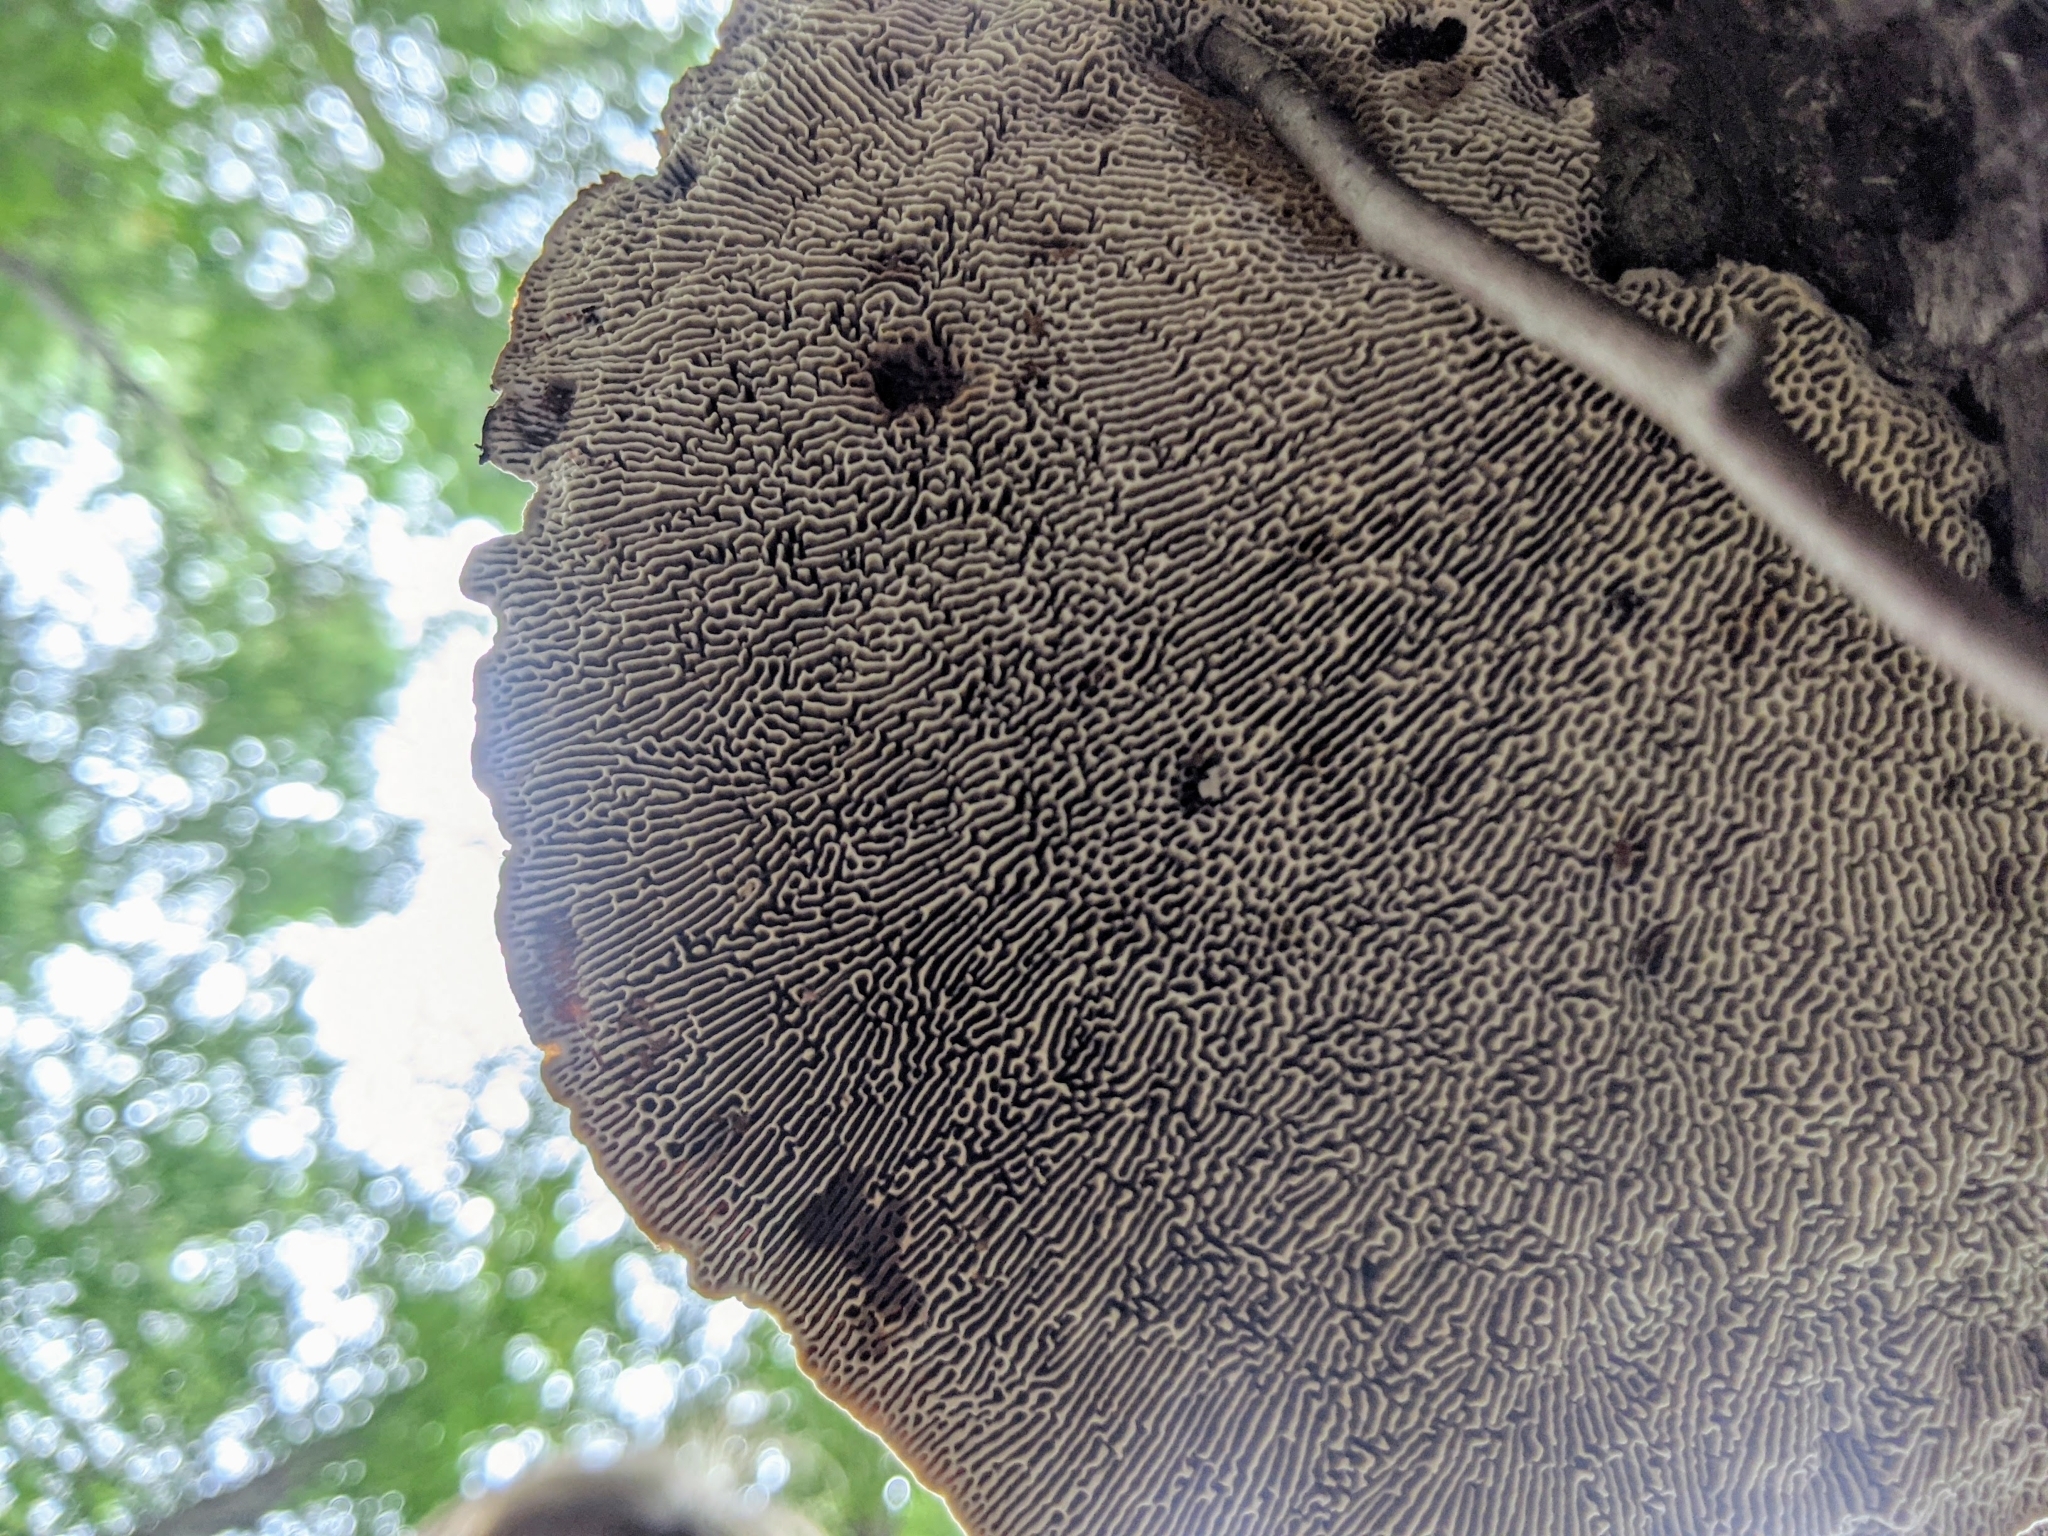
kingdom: Fungi
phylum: Basidiomycota
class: Agaricomycetes
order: Polyporales
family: Polyporaceae
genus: Daedaleopsis
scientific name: Daedaleopsis confragosa
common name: Blushing bracket
